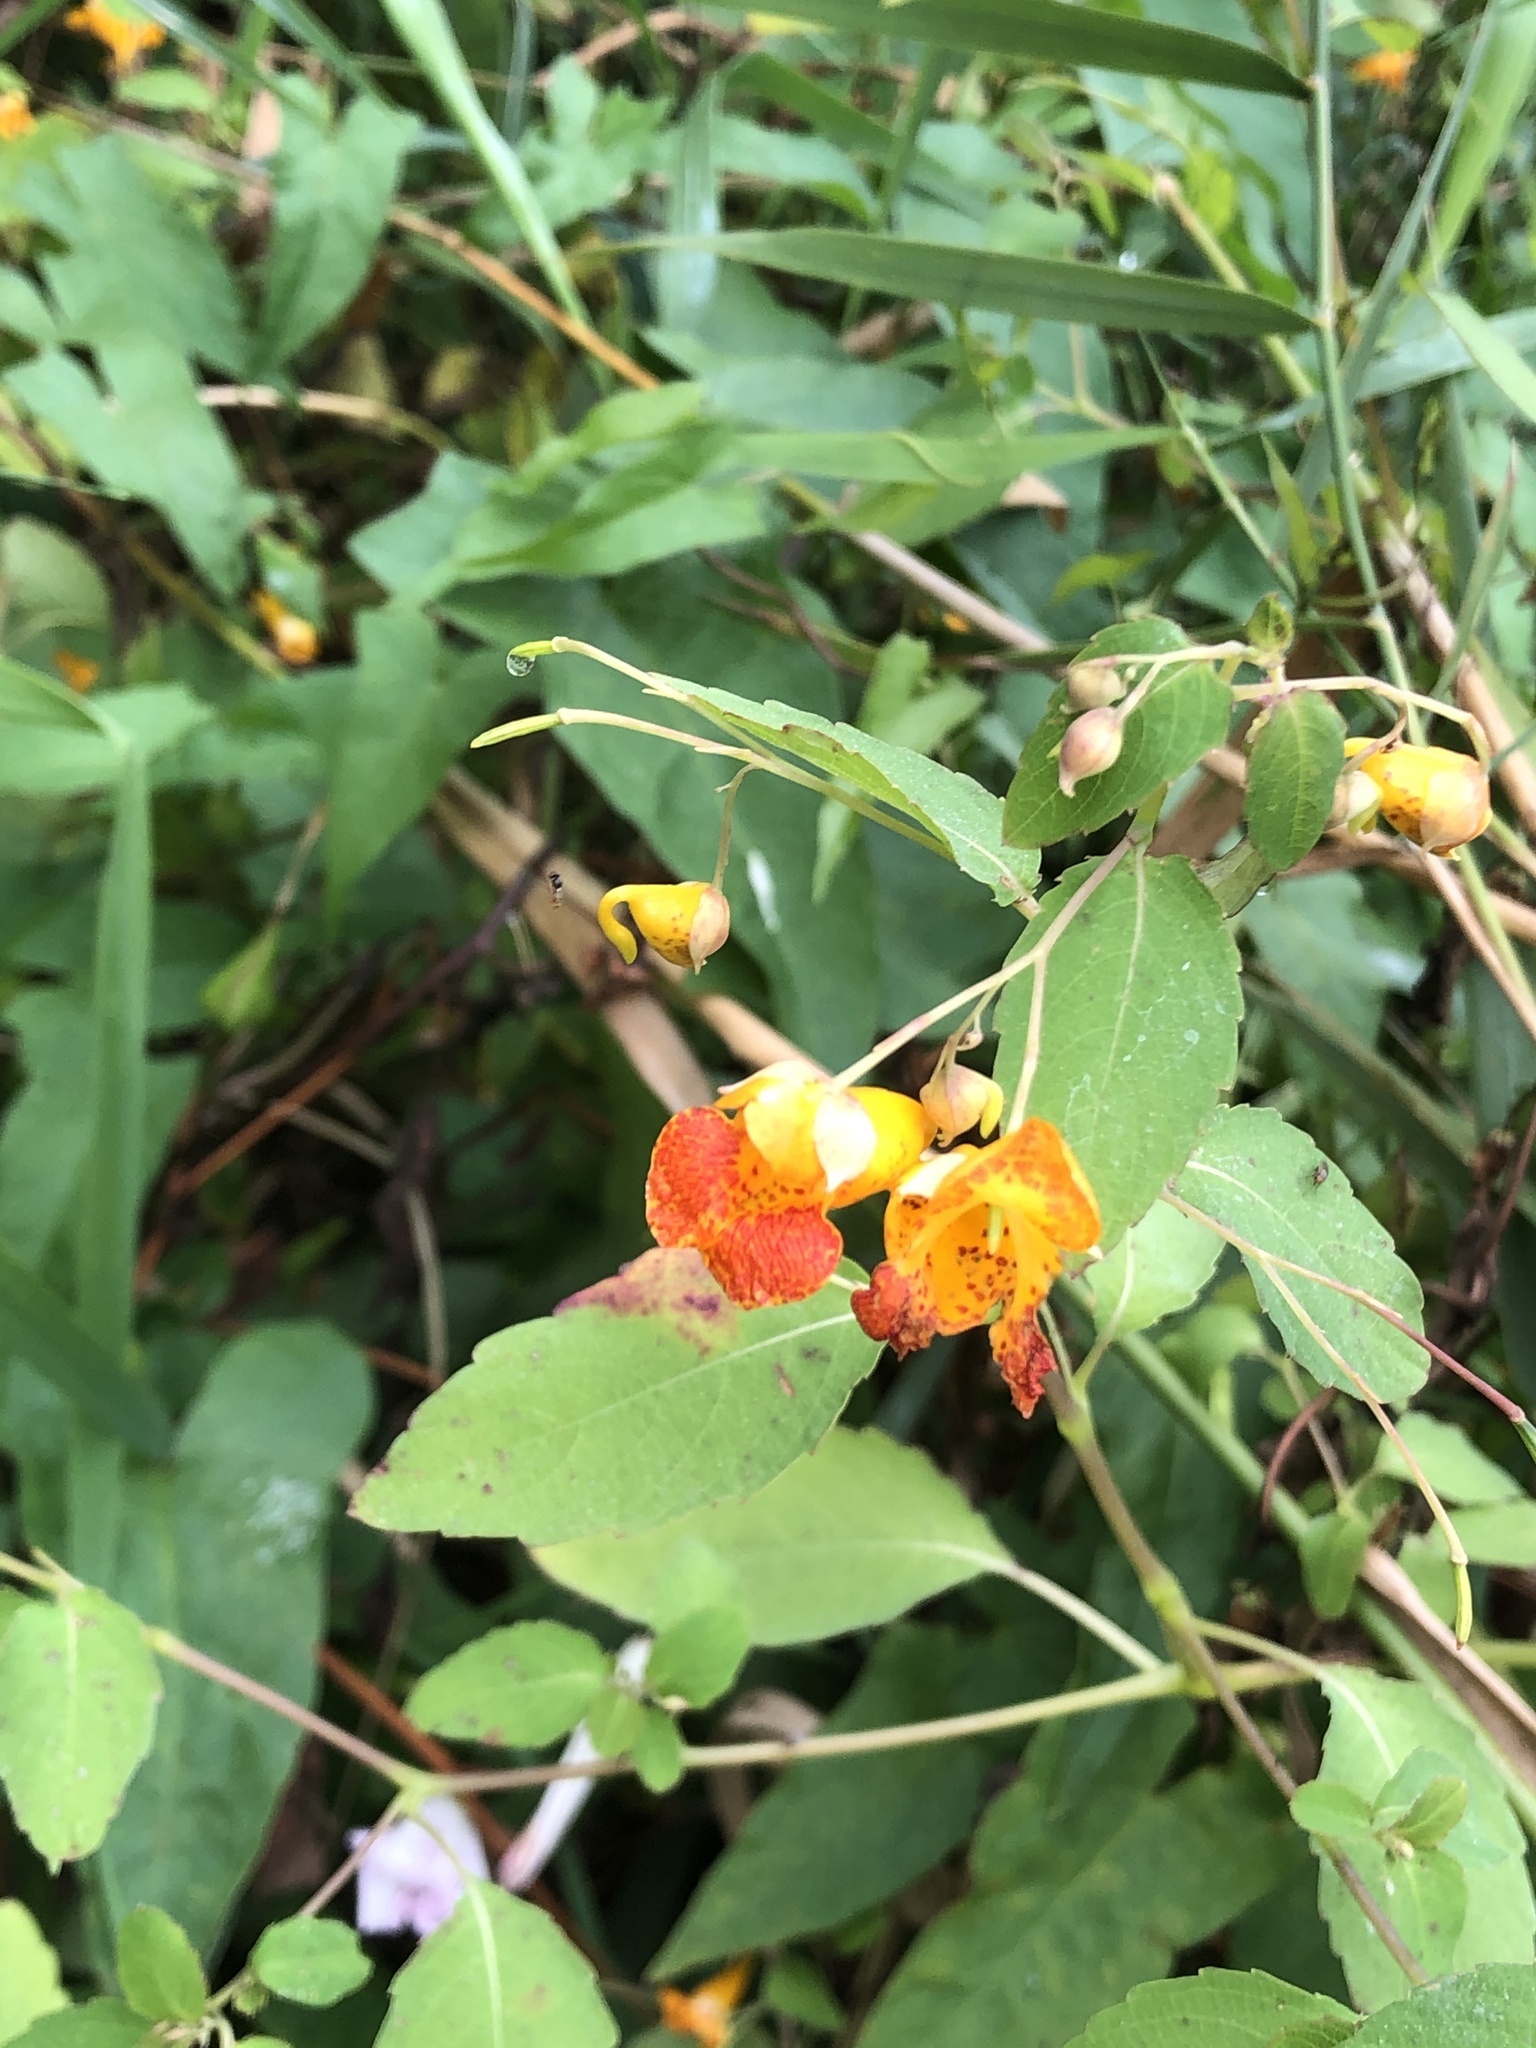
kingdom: Plantae
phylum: Tracheophyta
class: Magnoliopsida
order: Ericales
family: Balsaminaceae
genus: Impatiens
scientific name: Impatiens capensis
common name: Orange balsam
